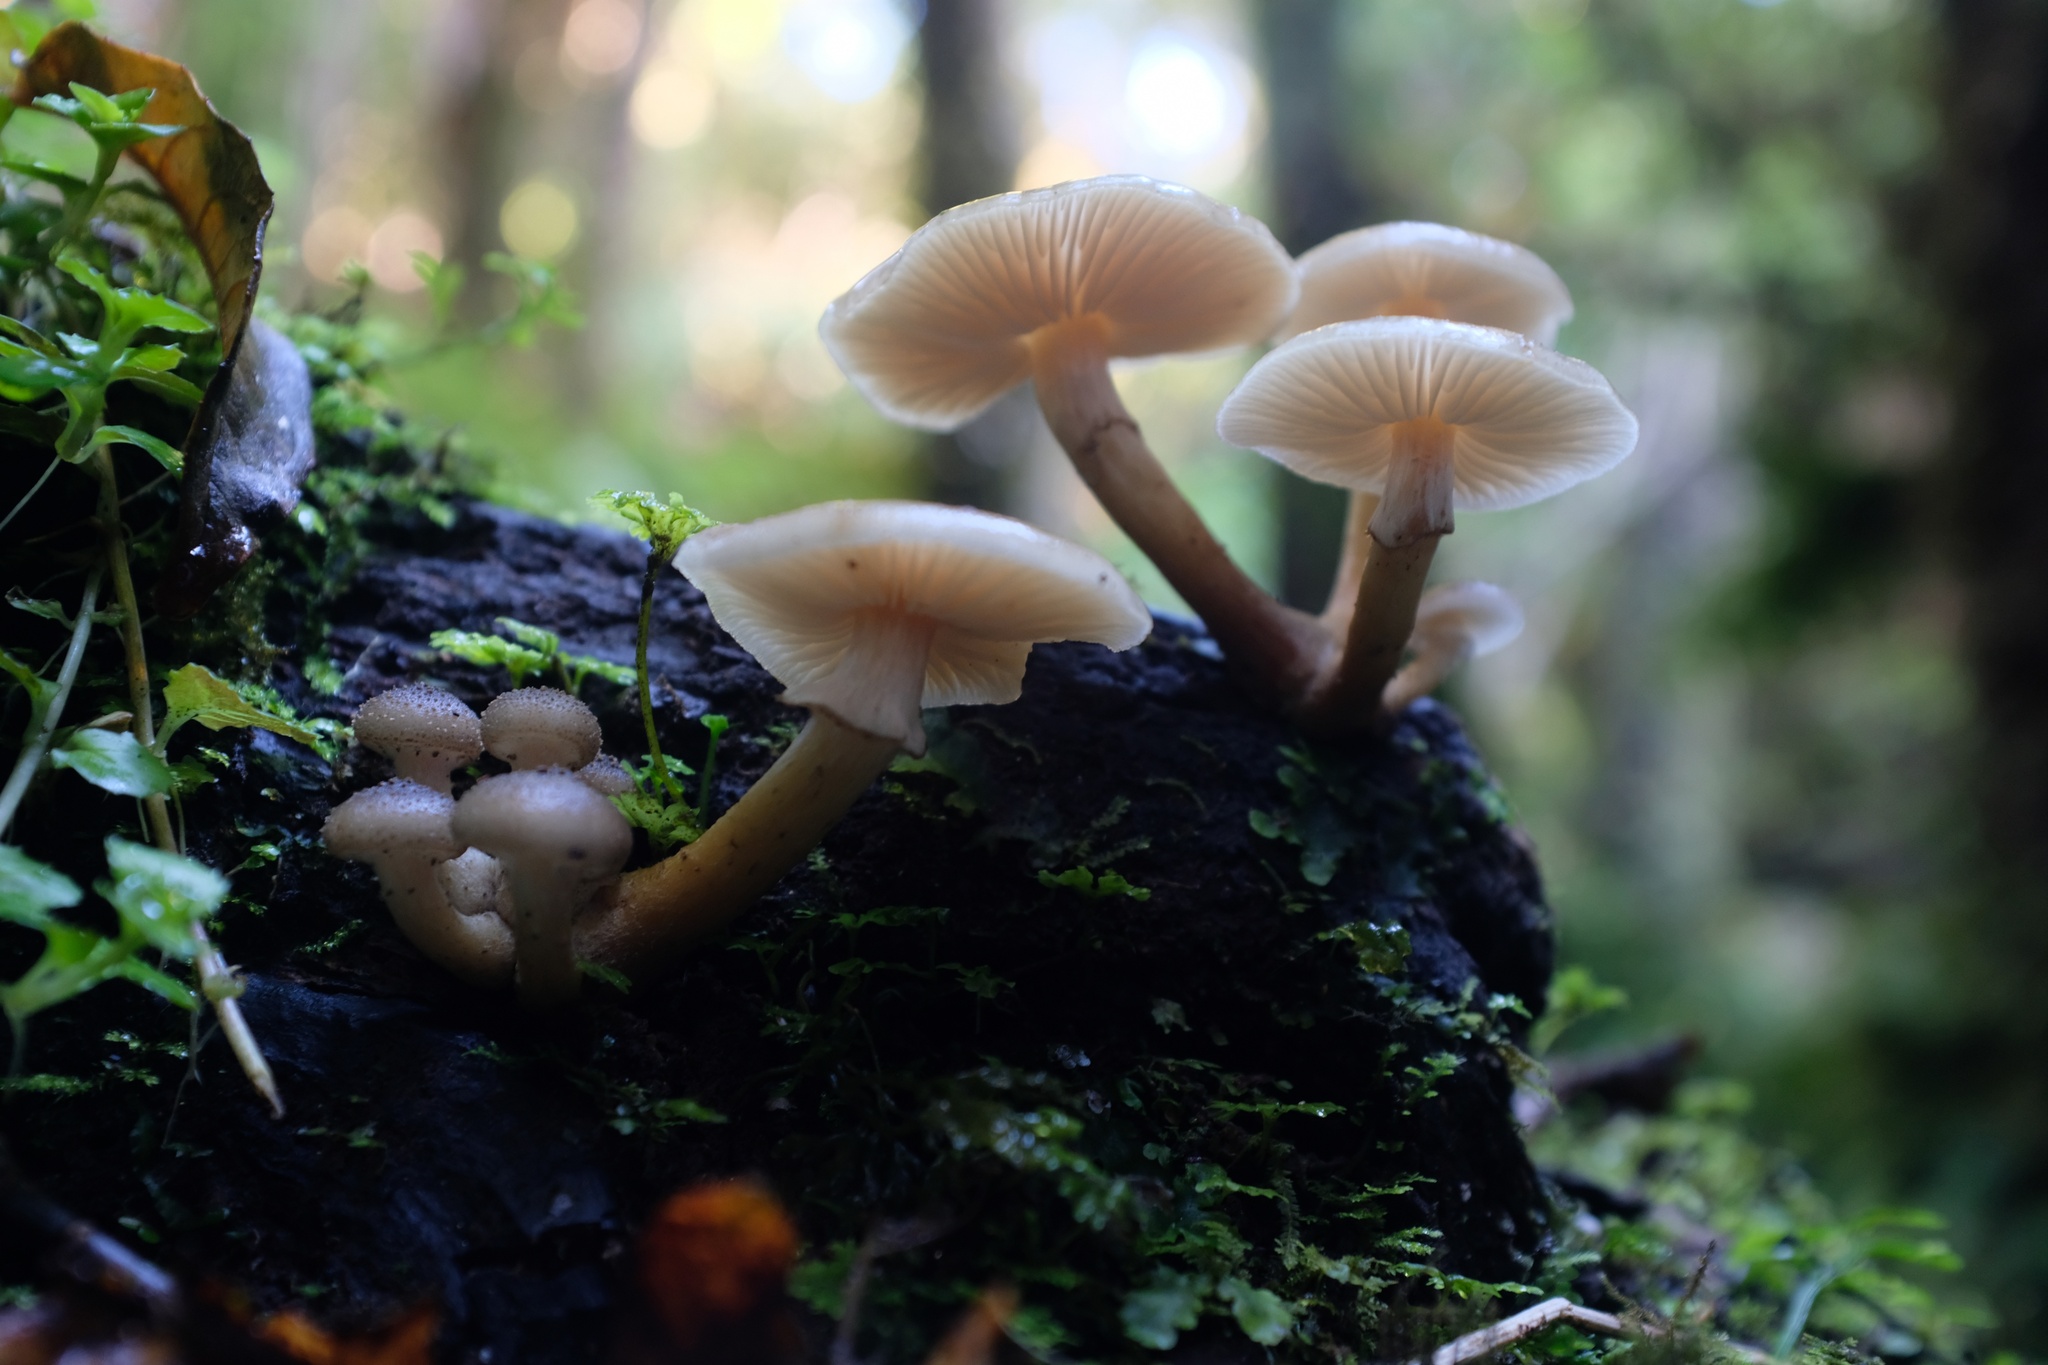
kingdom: Fungi
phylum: Basidiomycota
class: Agaricomycetes
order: Agaricales
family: Physalacriaceae
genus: Armillaria
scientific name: Armillaria novae-zelandiae
